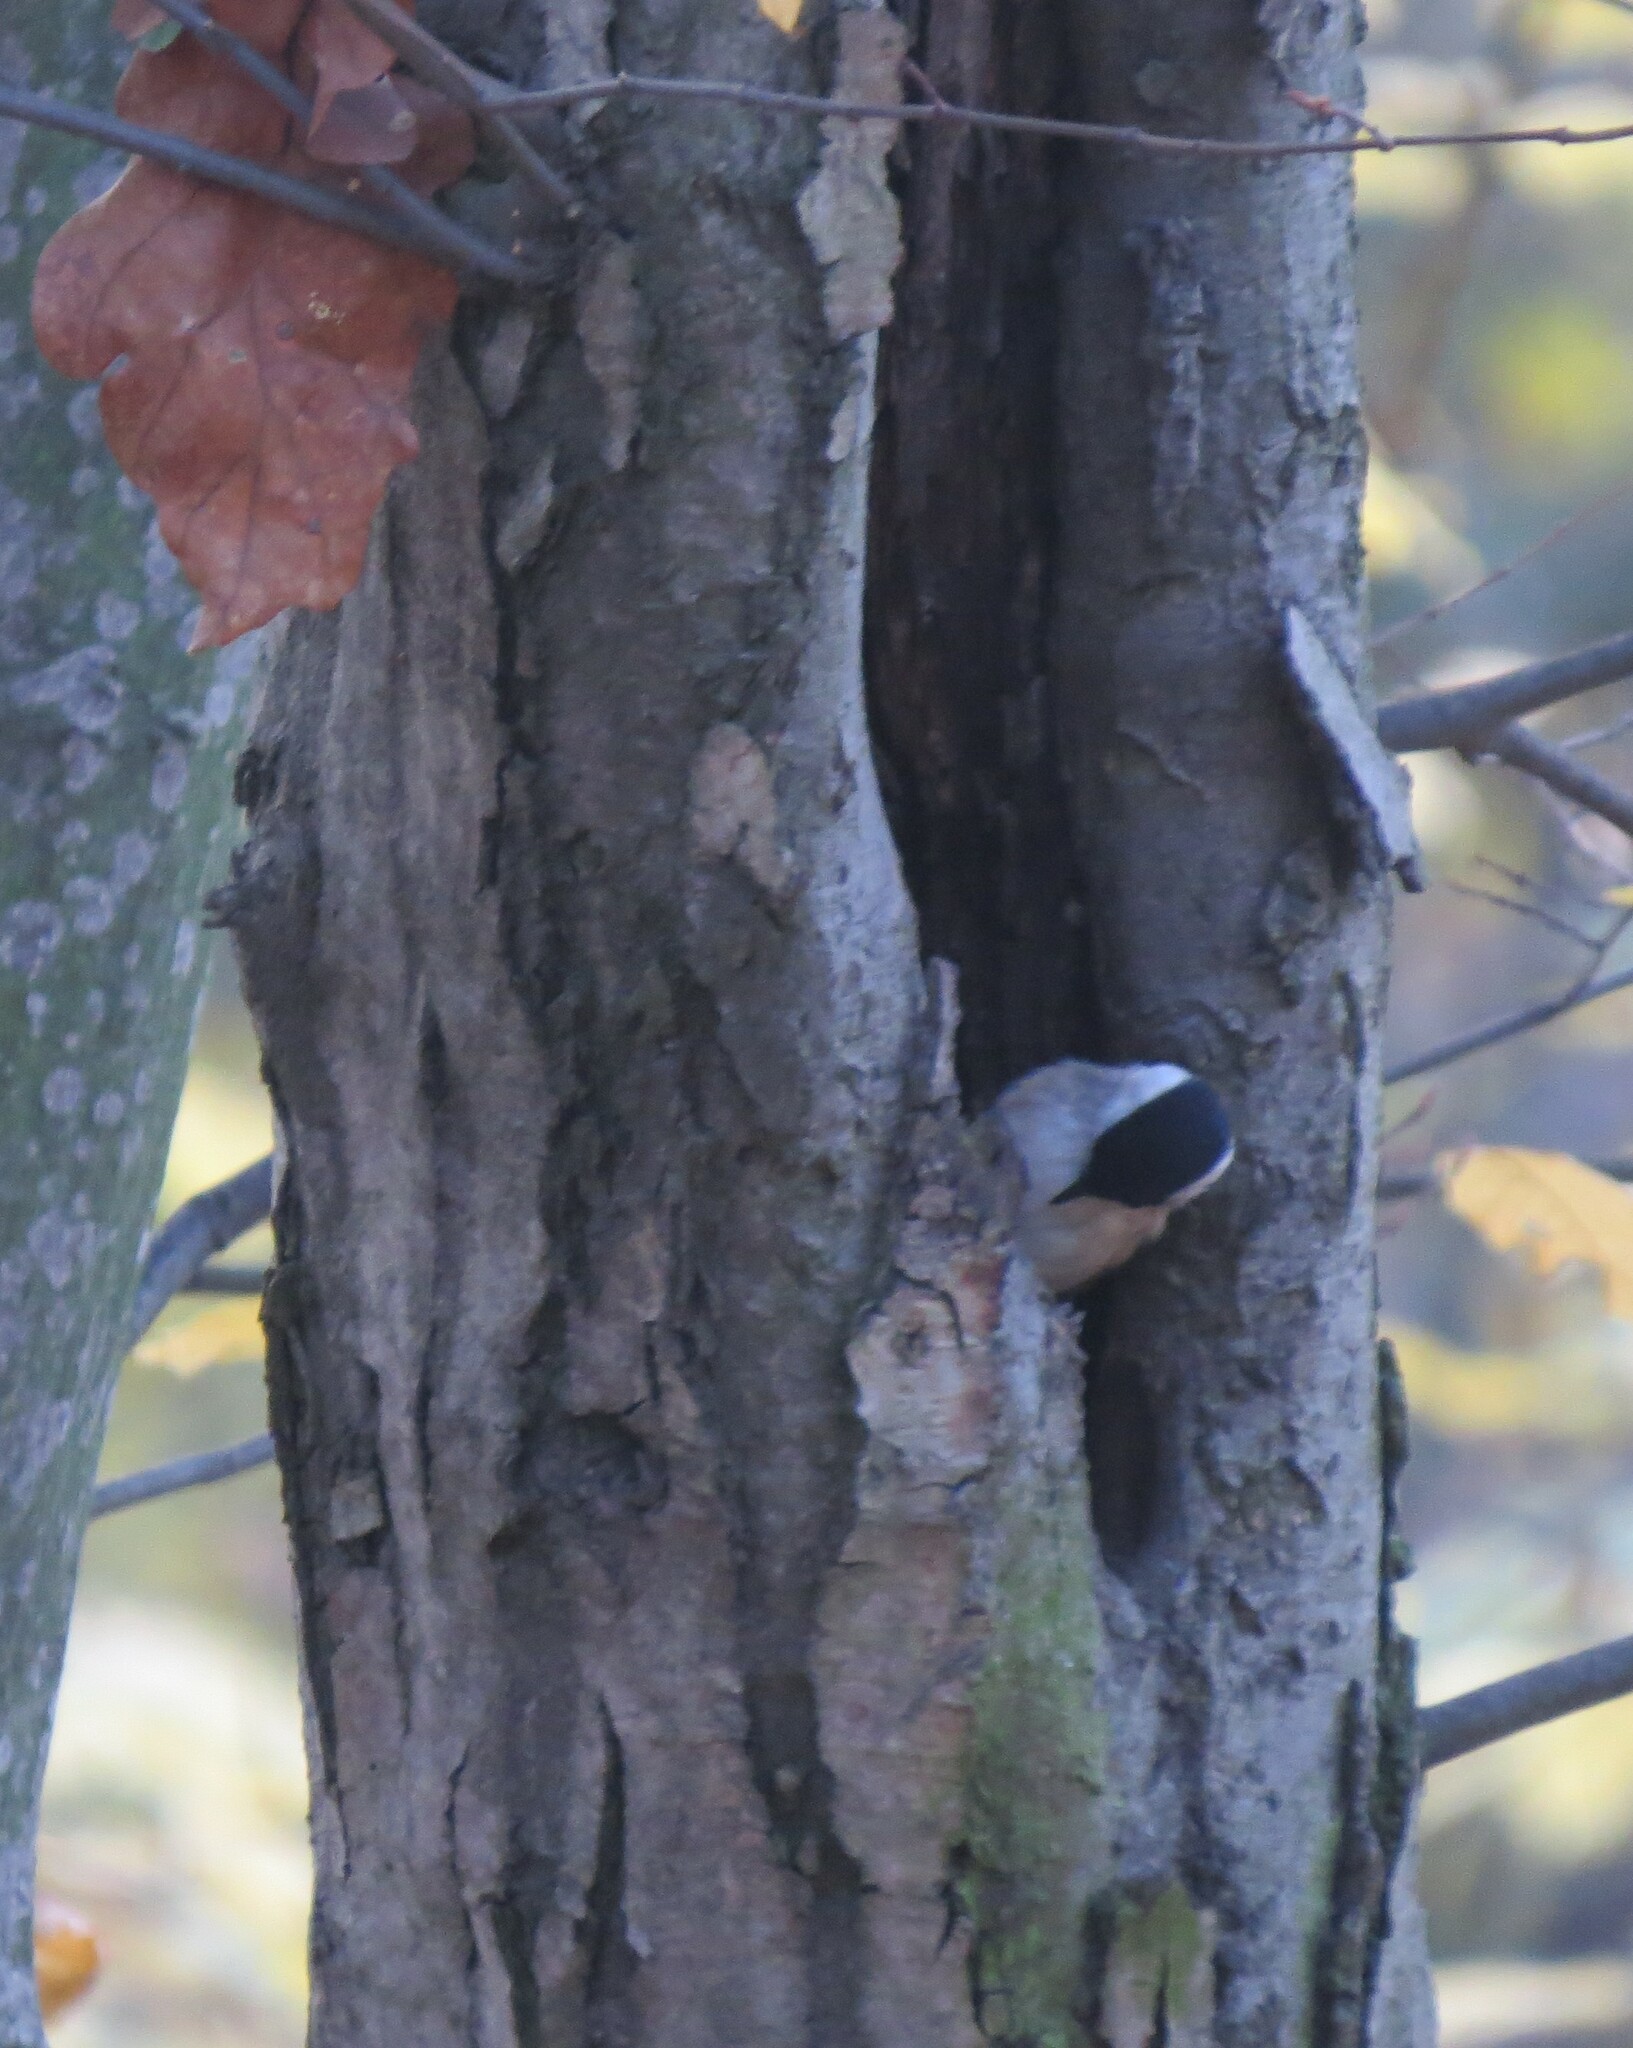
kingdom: Animalia
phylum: Chordata
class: Aves
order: Passeriformes
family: Paridae
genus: Poecile
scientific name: Poecile palustris
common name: Marsh tit
